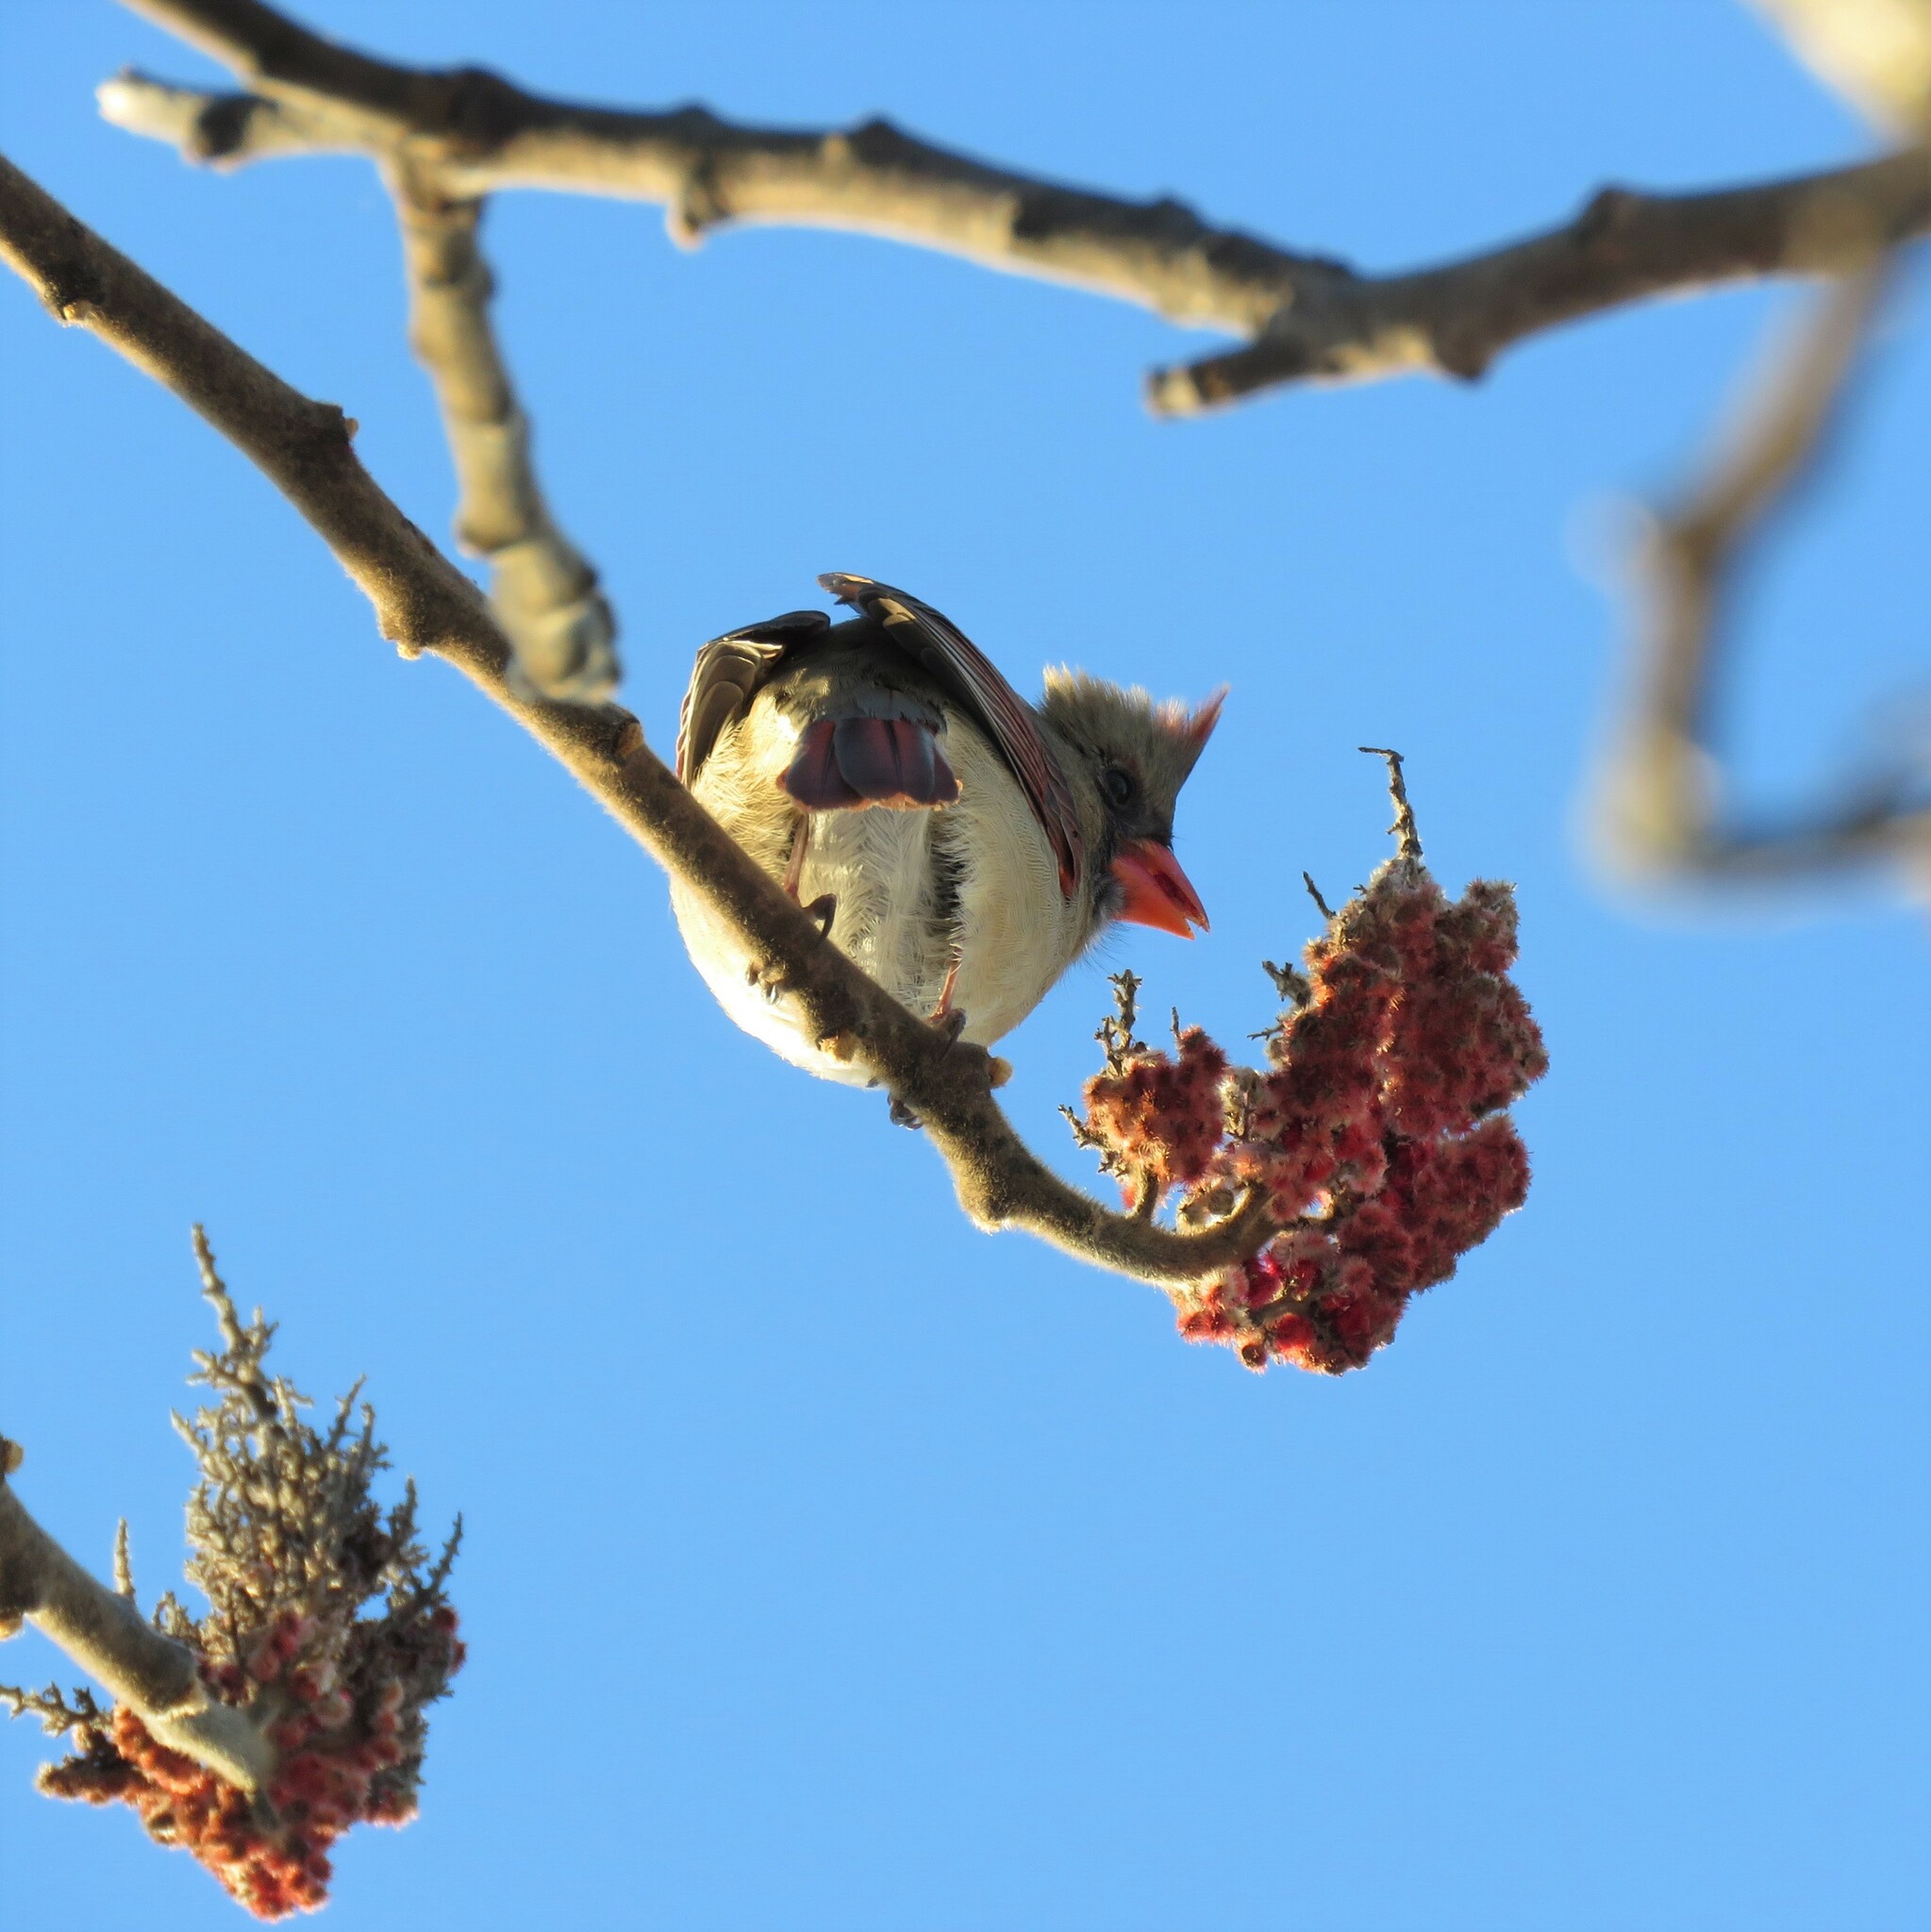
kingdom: Animalia
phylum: Chordata
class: Aves
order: Passeriformes
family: Cardinalidae
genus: Cardinalis
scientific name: Cardinalis cardinalis
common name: Northern cardinal
